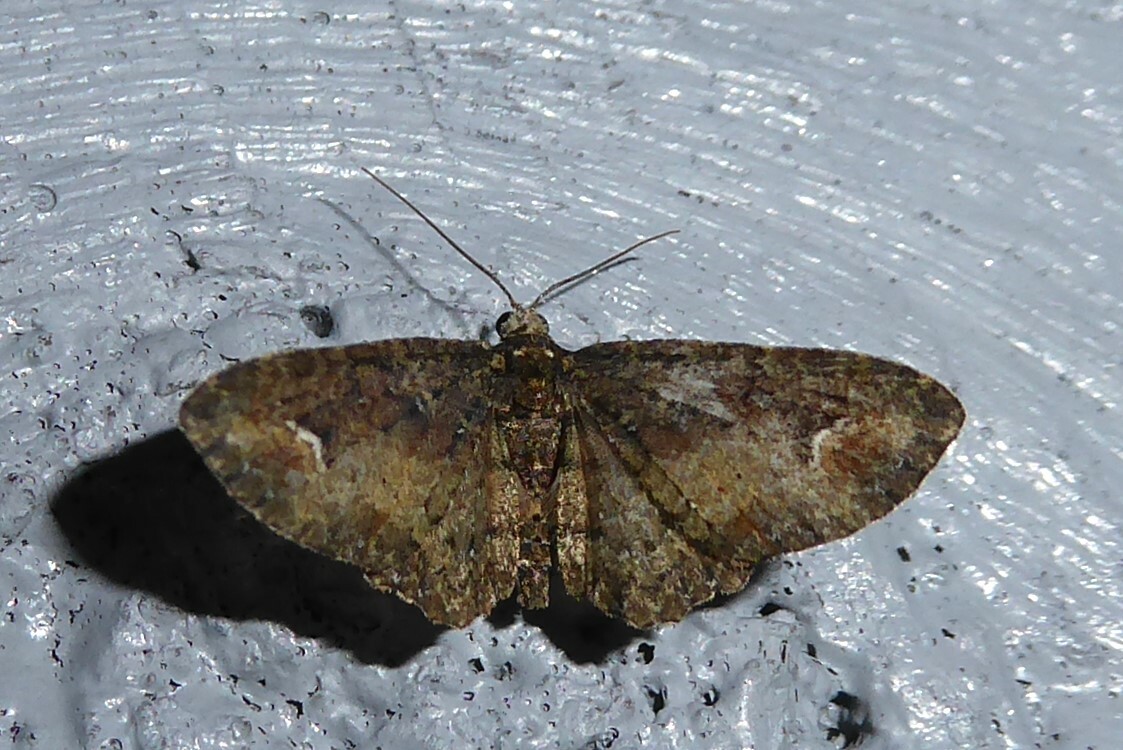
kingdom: Animalia
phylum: Arthropoda
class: Insecta
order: Lepidoptera
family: Geometridae
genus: Pasiphilodes
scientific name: Pasiphilodes testulata
